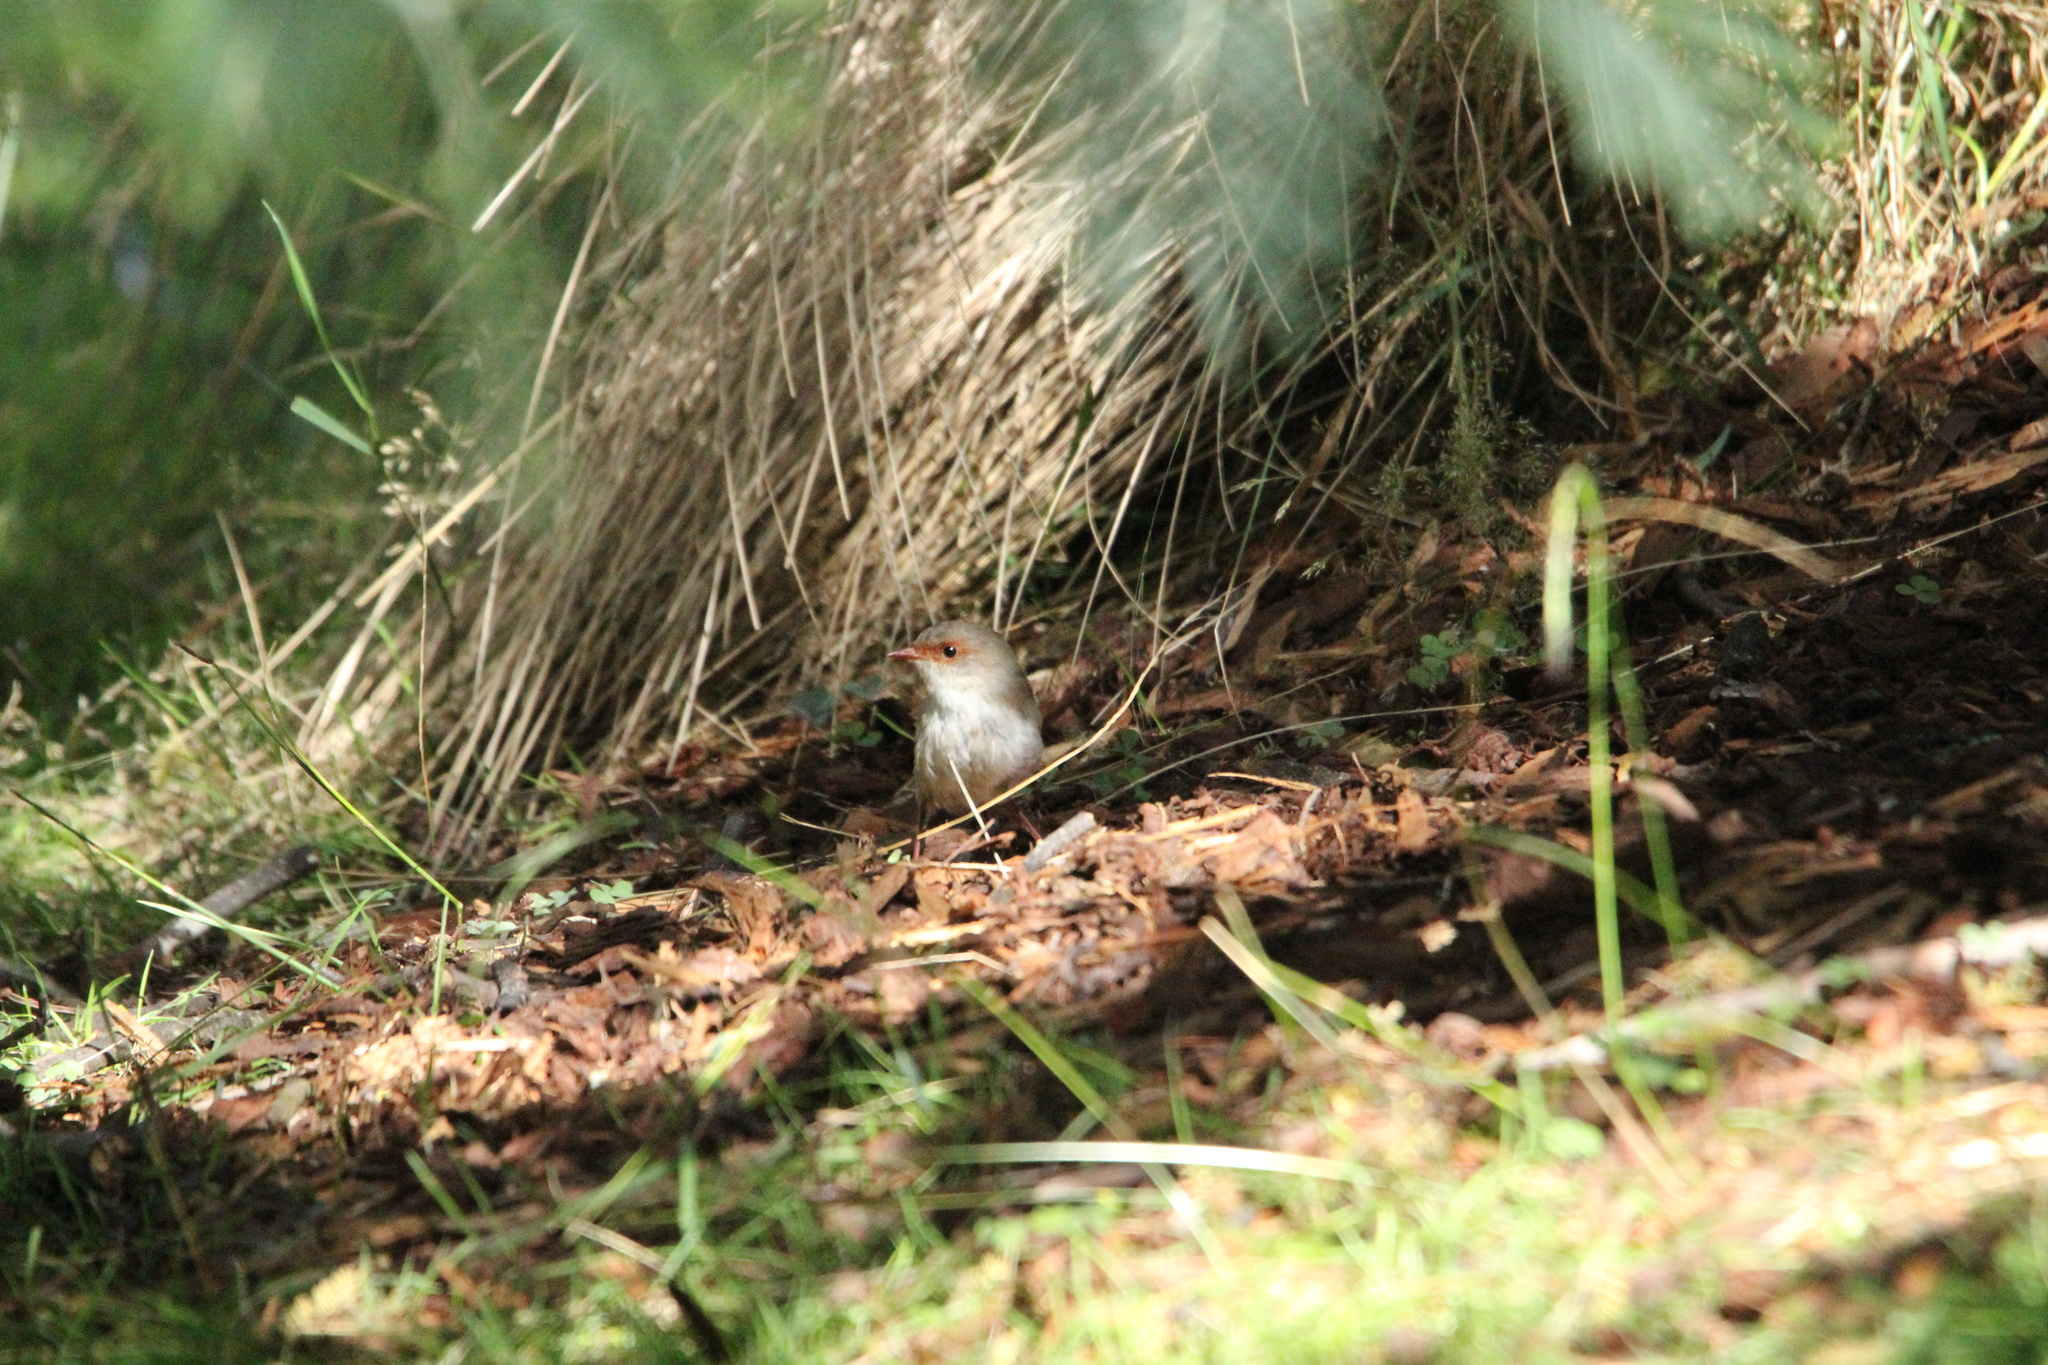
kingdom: Animalia
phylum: Chordata
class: Aves
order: Passeriformes
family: Maluridae
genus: Malurus
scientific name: Malurus cyaneus
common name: Superb fairywren
